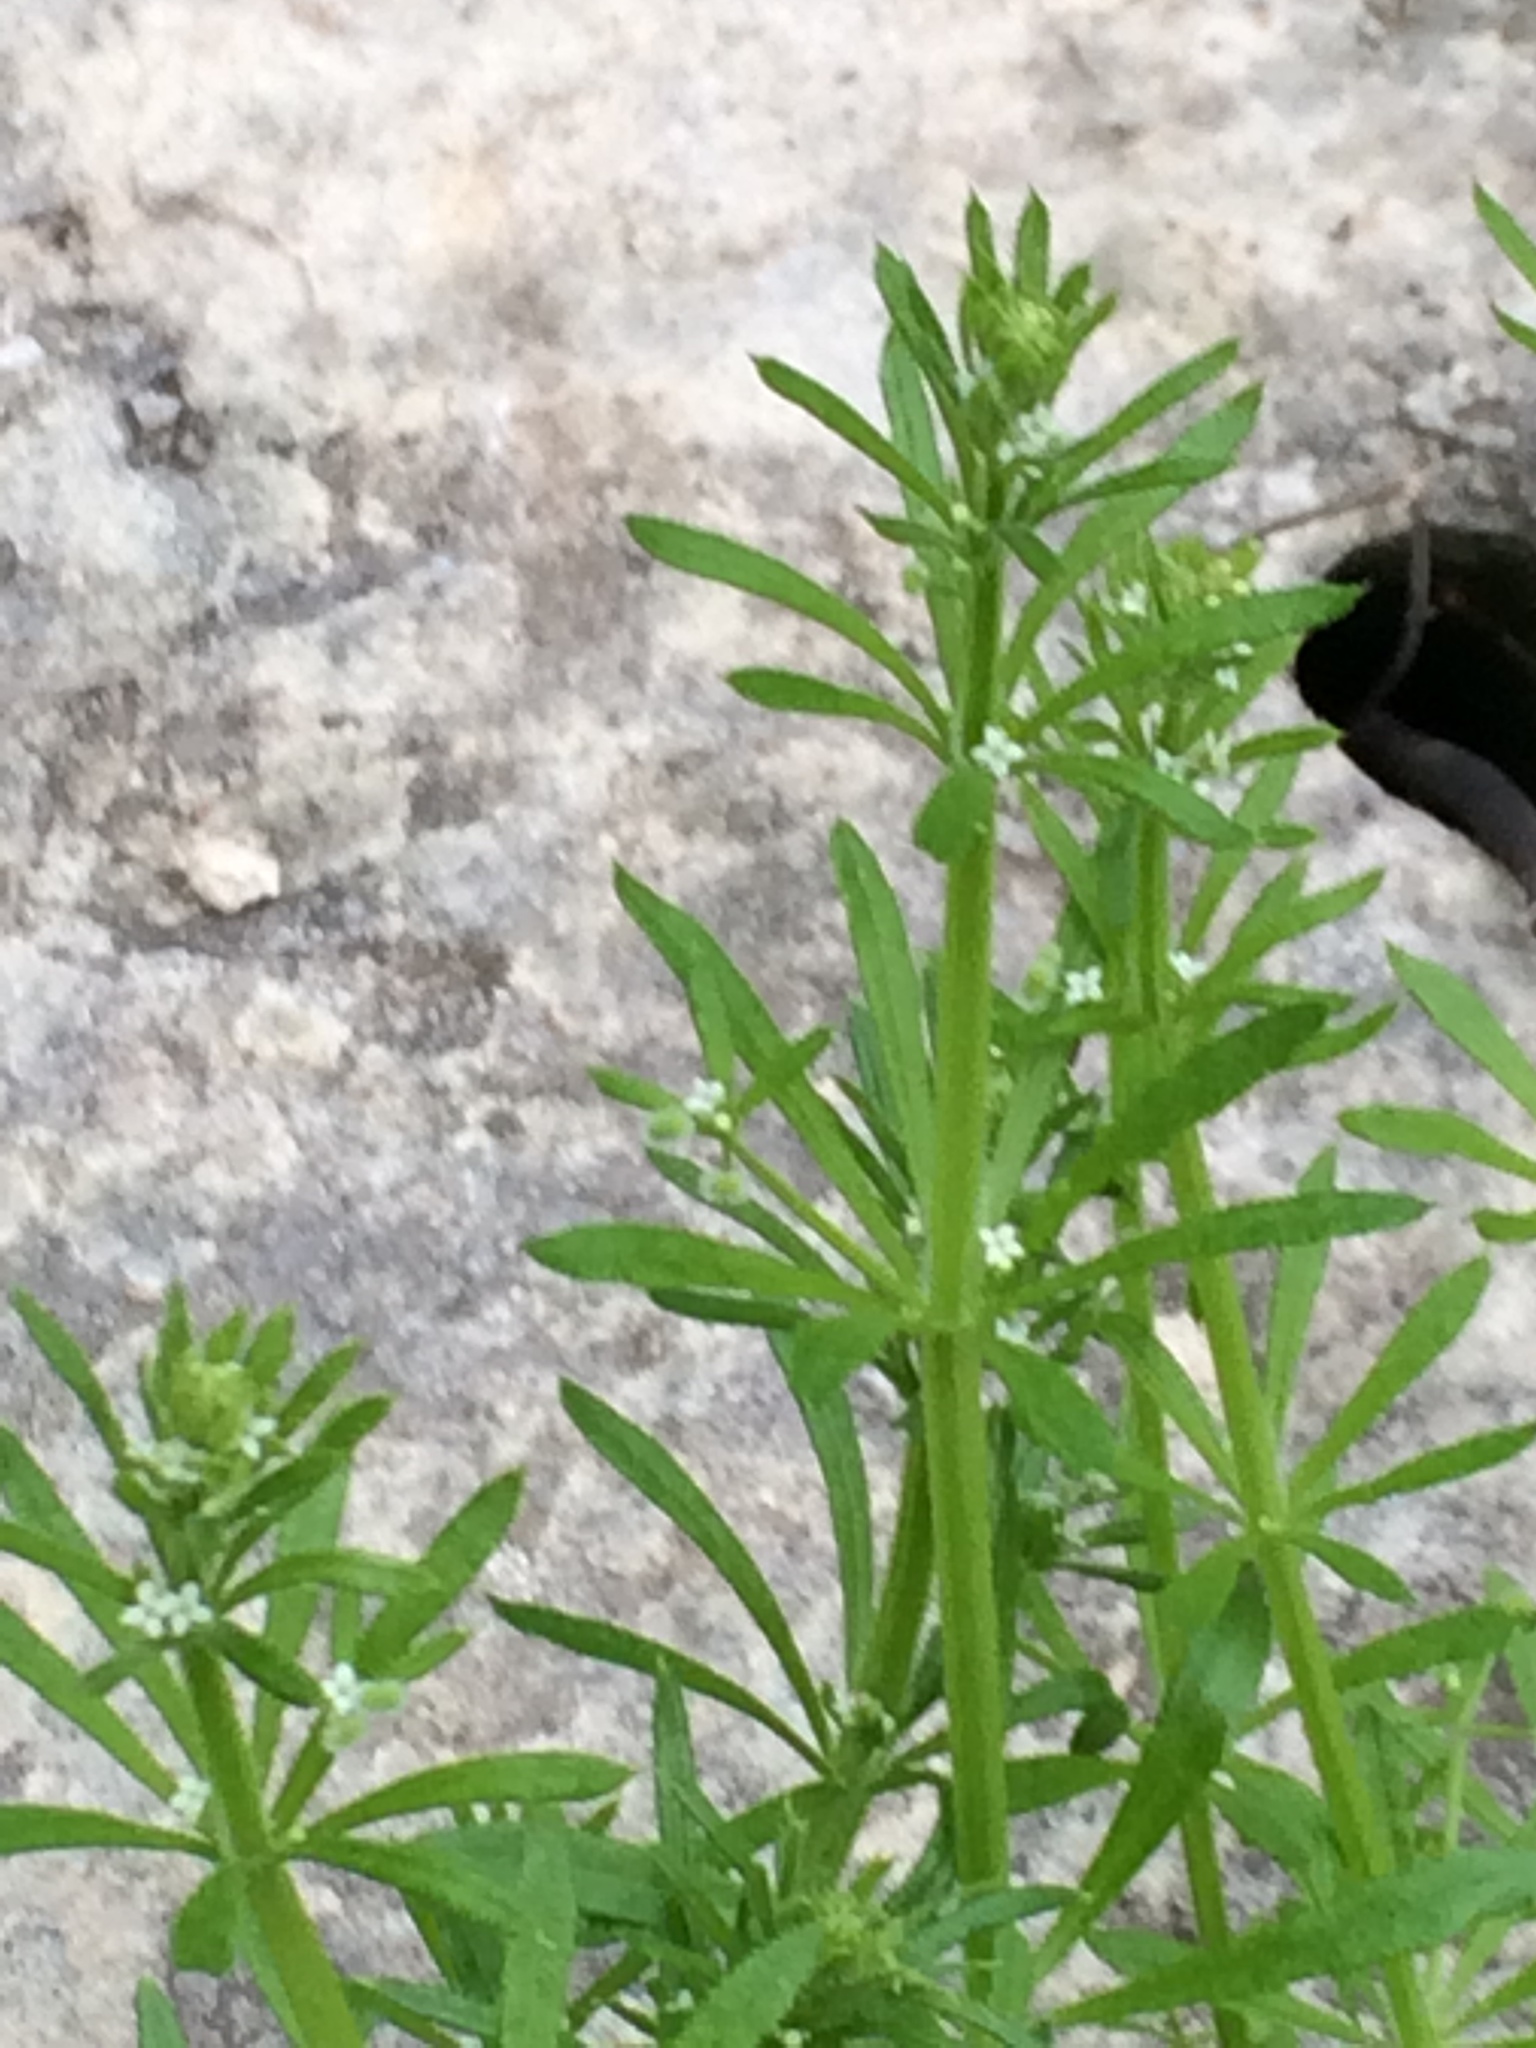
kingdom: Plantae
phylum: Tracheophyta
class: Magnoliopsida
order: Gentianales
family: Rubiaceae
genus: Galium
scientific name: Galium aparine
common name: Cleavers
